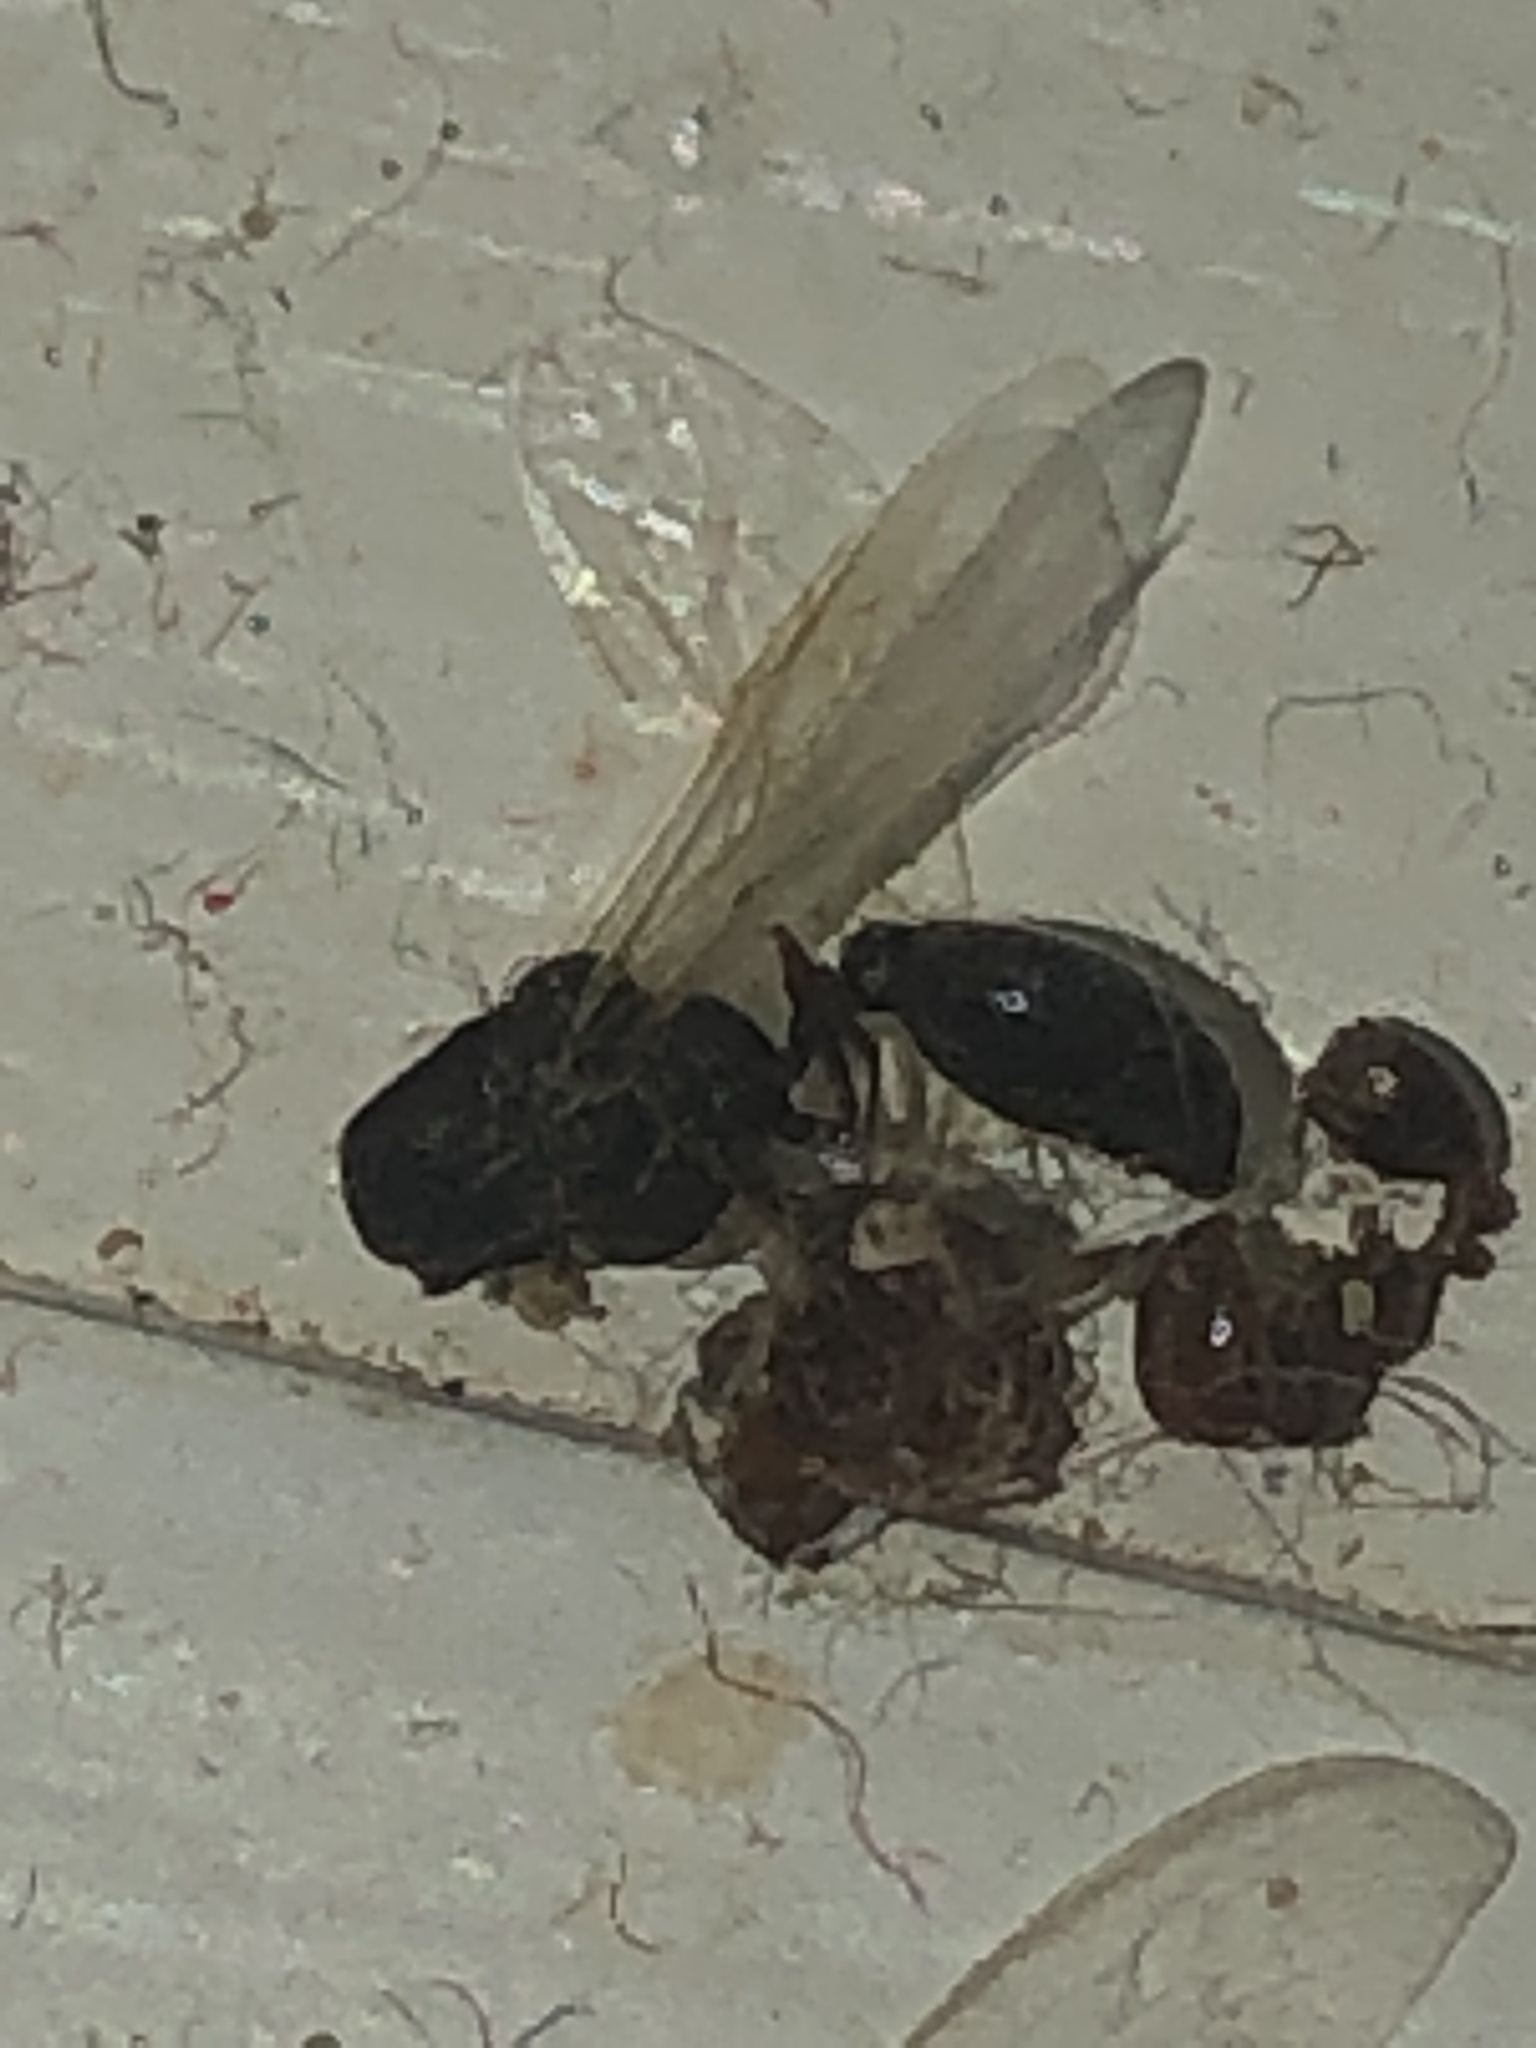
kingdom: Animalia
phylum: Arthropoda
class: Insecta
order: Hymenoptera
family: Formicidae
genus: Solenopsis
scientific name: Solenopsis invicta
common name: Red imported fire ant
